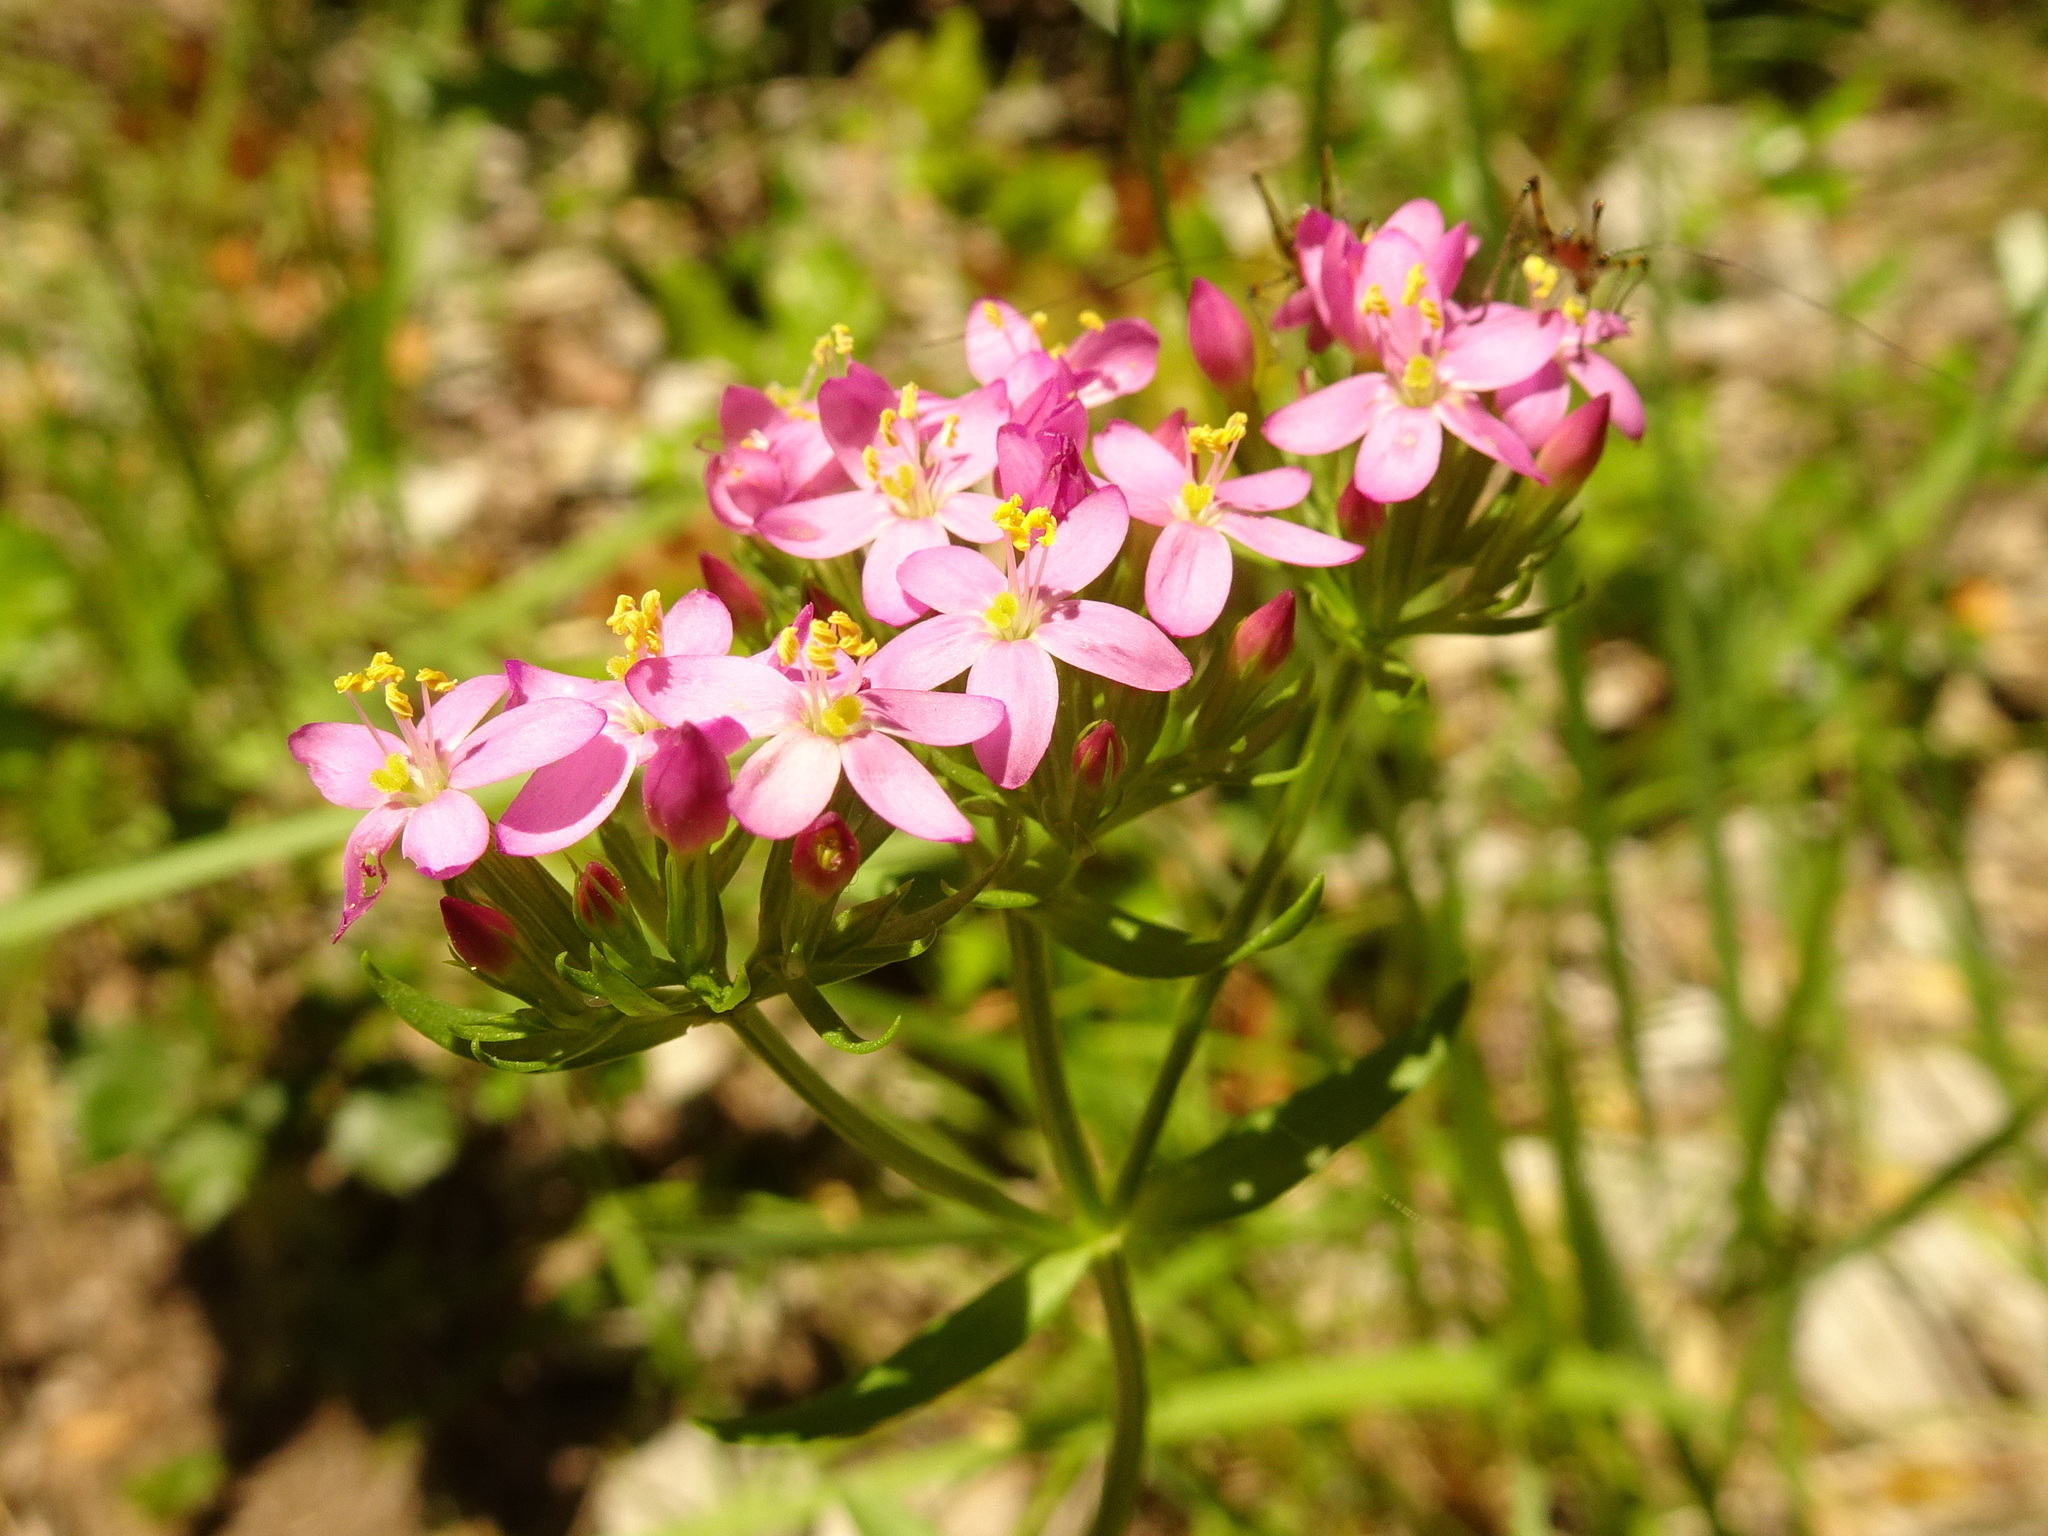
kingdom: Plantae
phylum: Tracheophyta
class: Magnoliopsida
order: Gentianales
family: Gentianaceae
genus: Centaurium
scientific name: Centaurium erythraea
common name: Common centaury
